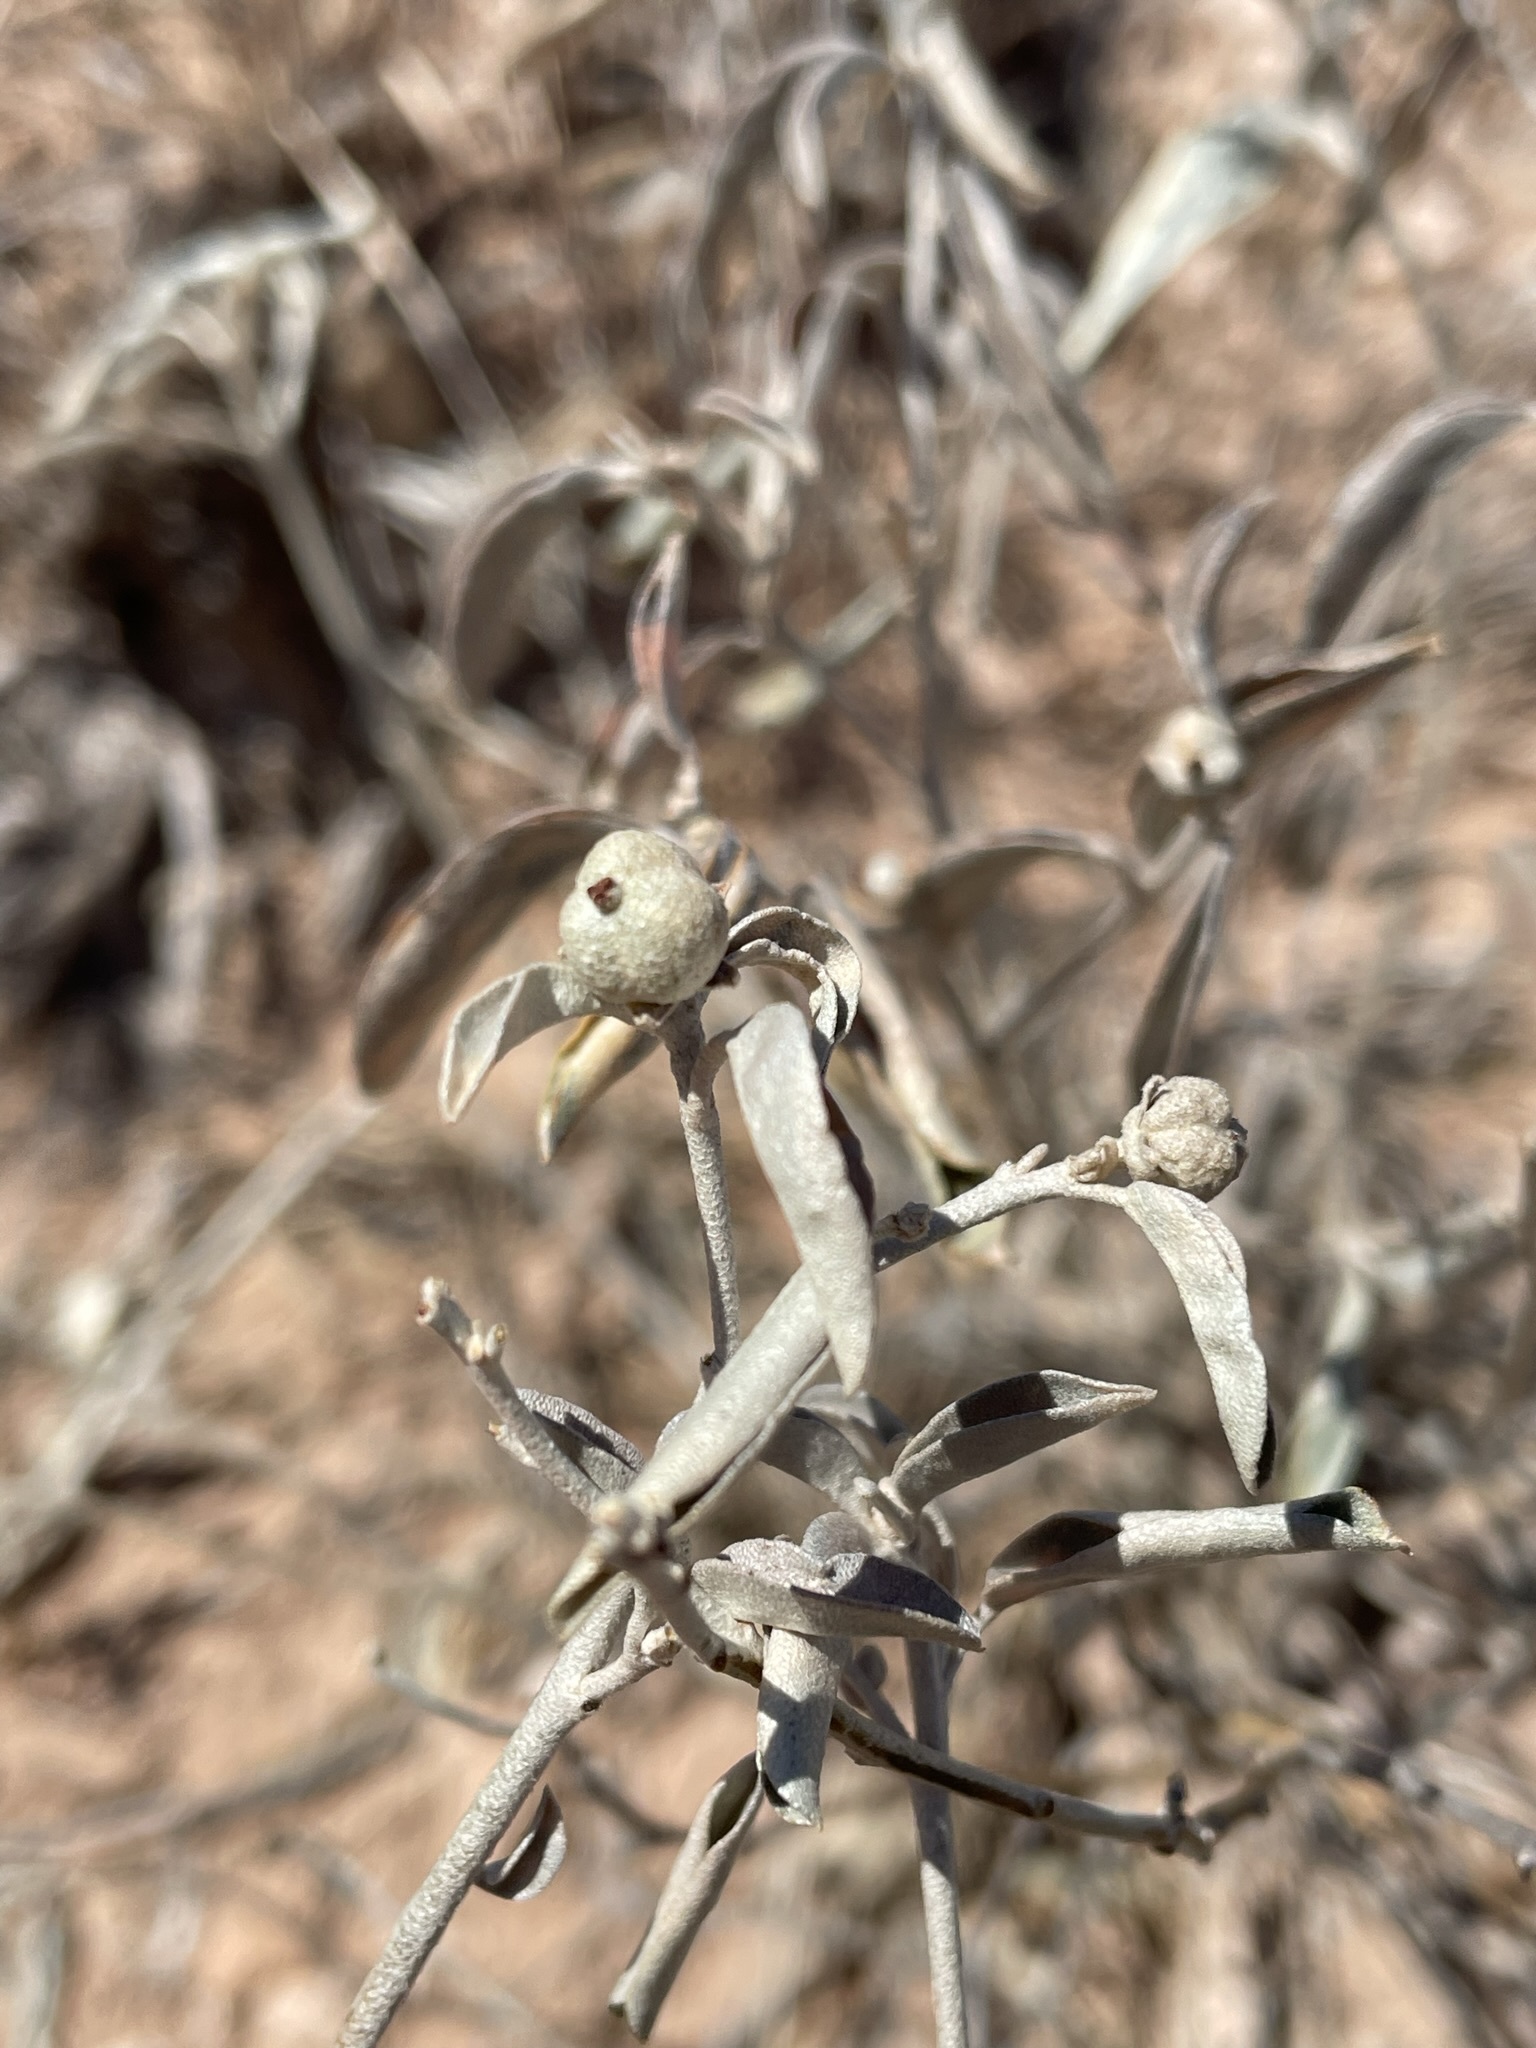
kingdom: Plantae
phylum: Tracheophyta
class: Magnoliopsida
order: Malpighiales
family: Euphorbiaceae
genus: Croton
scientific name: Croton dioicus
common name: Grassland croton
